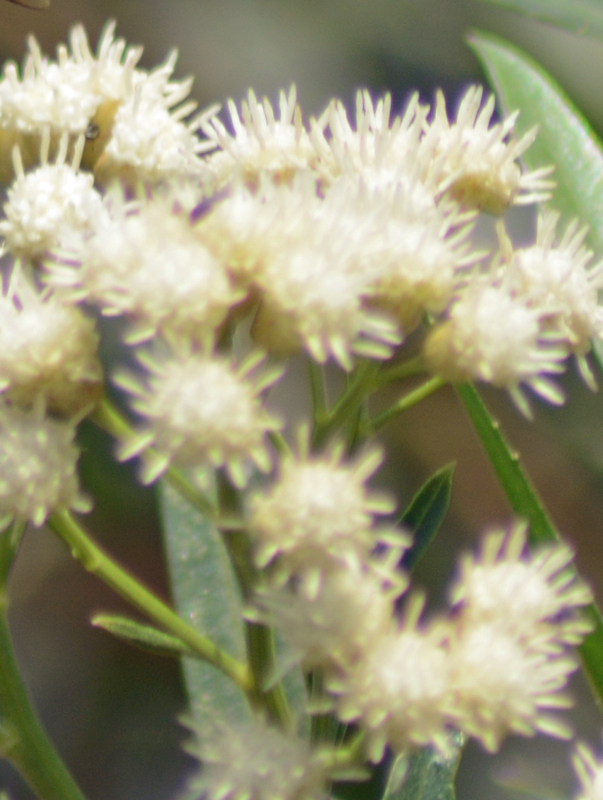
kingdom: Plantae
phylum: Tracheophyta
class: Magnoliopsida
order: Asterales
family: Asteraceae
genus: Baccharis
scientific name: Baccharis salicifolia
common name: Sticky baccharis
